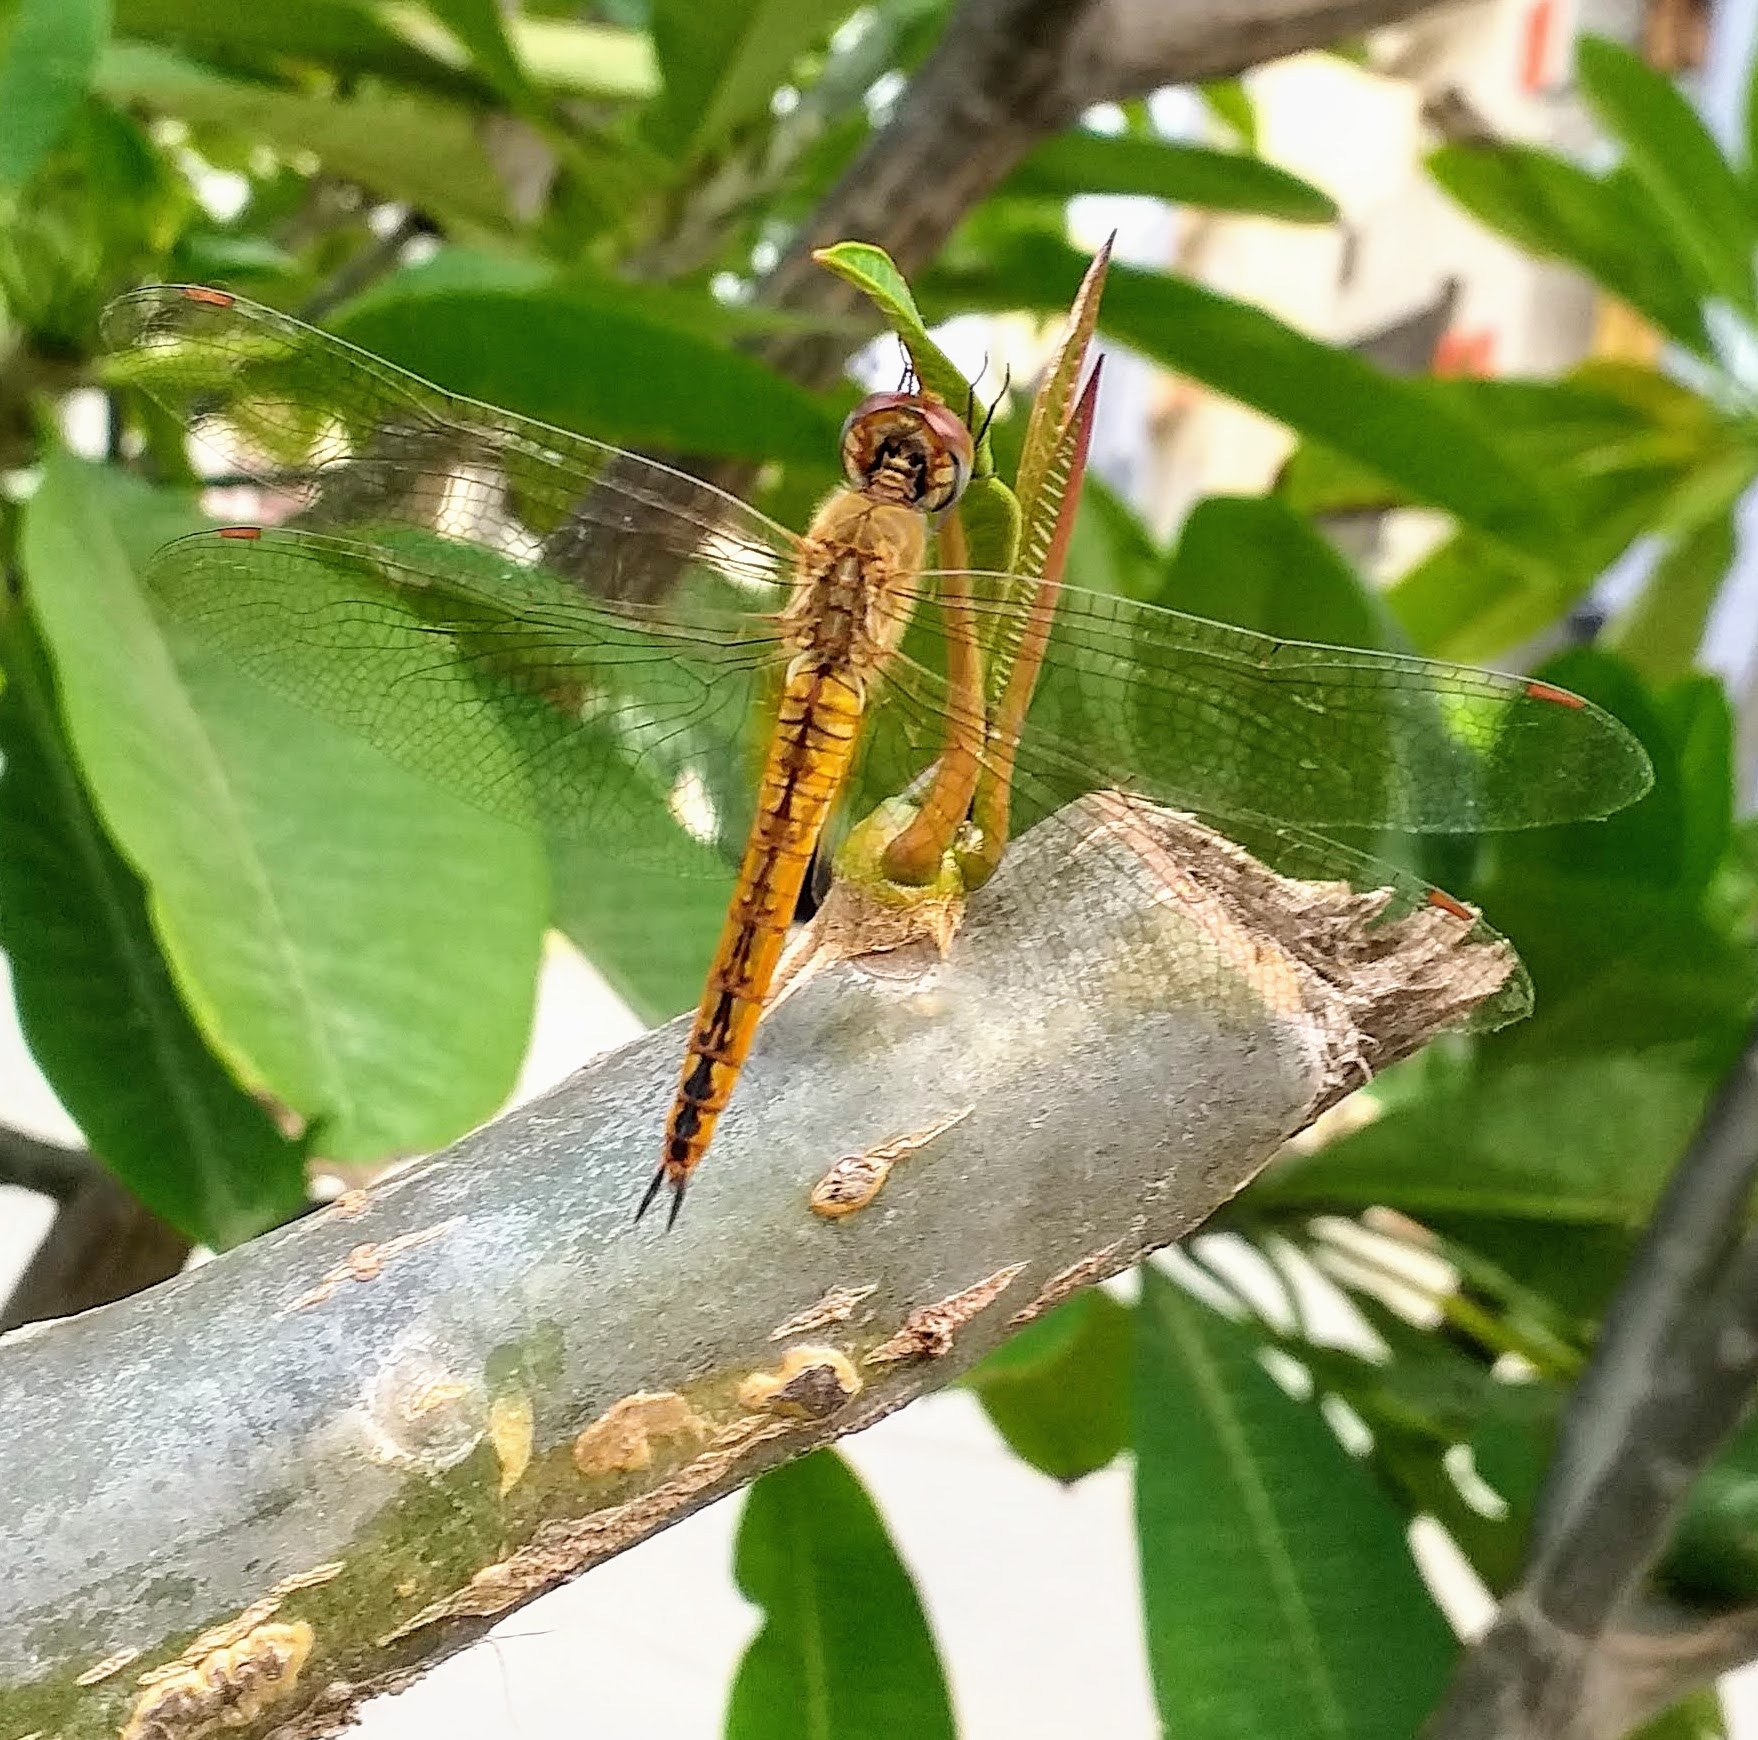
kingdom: Animalia
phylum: Arthropoda
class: Insecta
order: Odonata
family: Libellulidae
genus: Pantala
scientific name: Pantala flavescens
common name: Wandering glider
